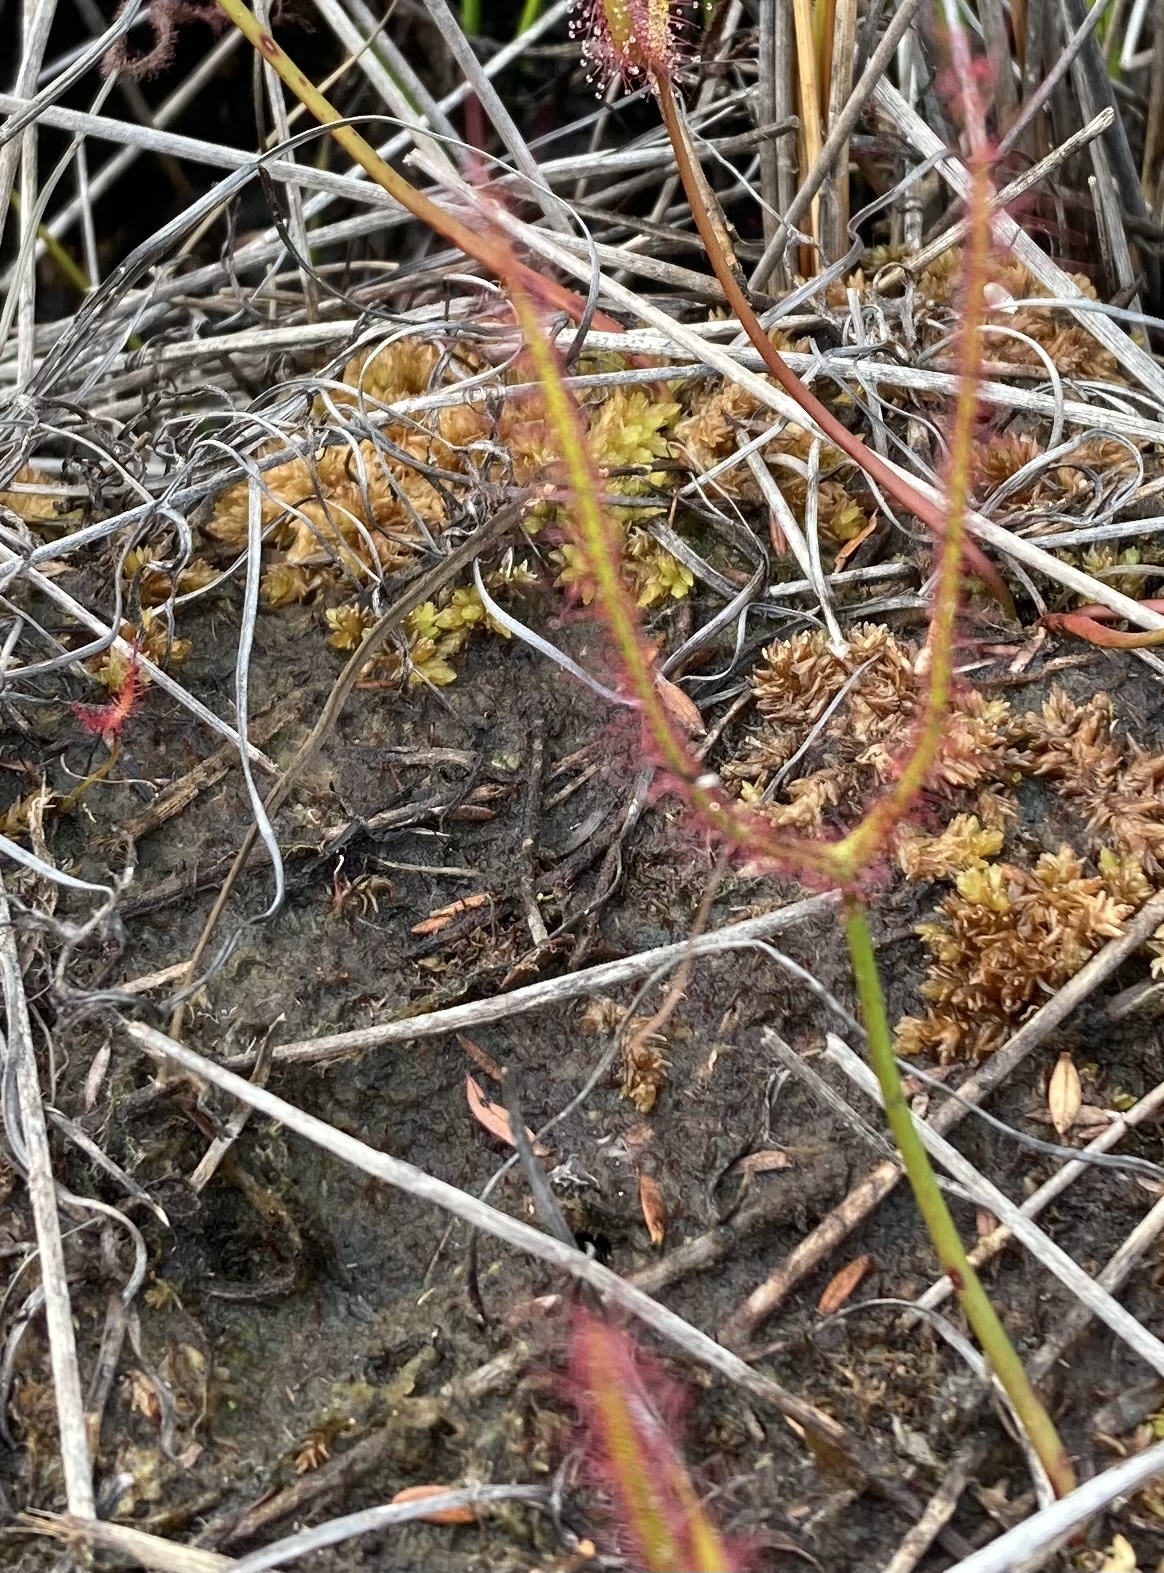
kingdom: Plantae
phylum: Tracheophyta
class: Magnoliopsida
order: Caryophyllales
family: Droseraceae
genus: Drosera
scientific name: Drosera binata
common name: Forked sundew
